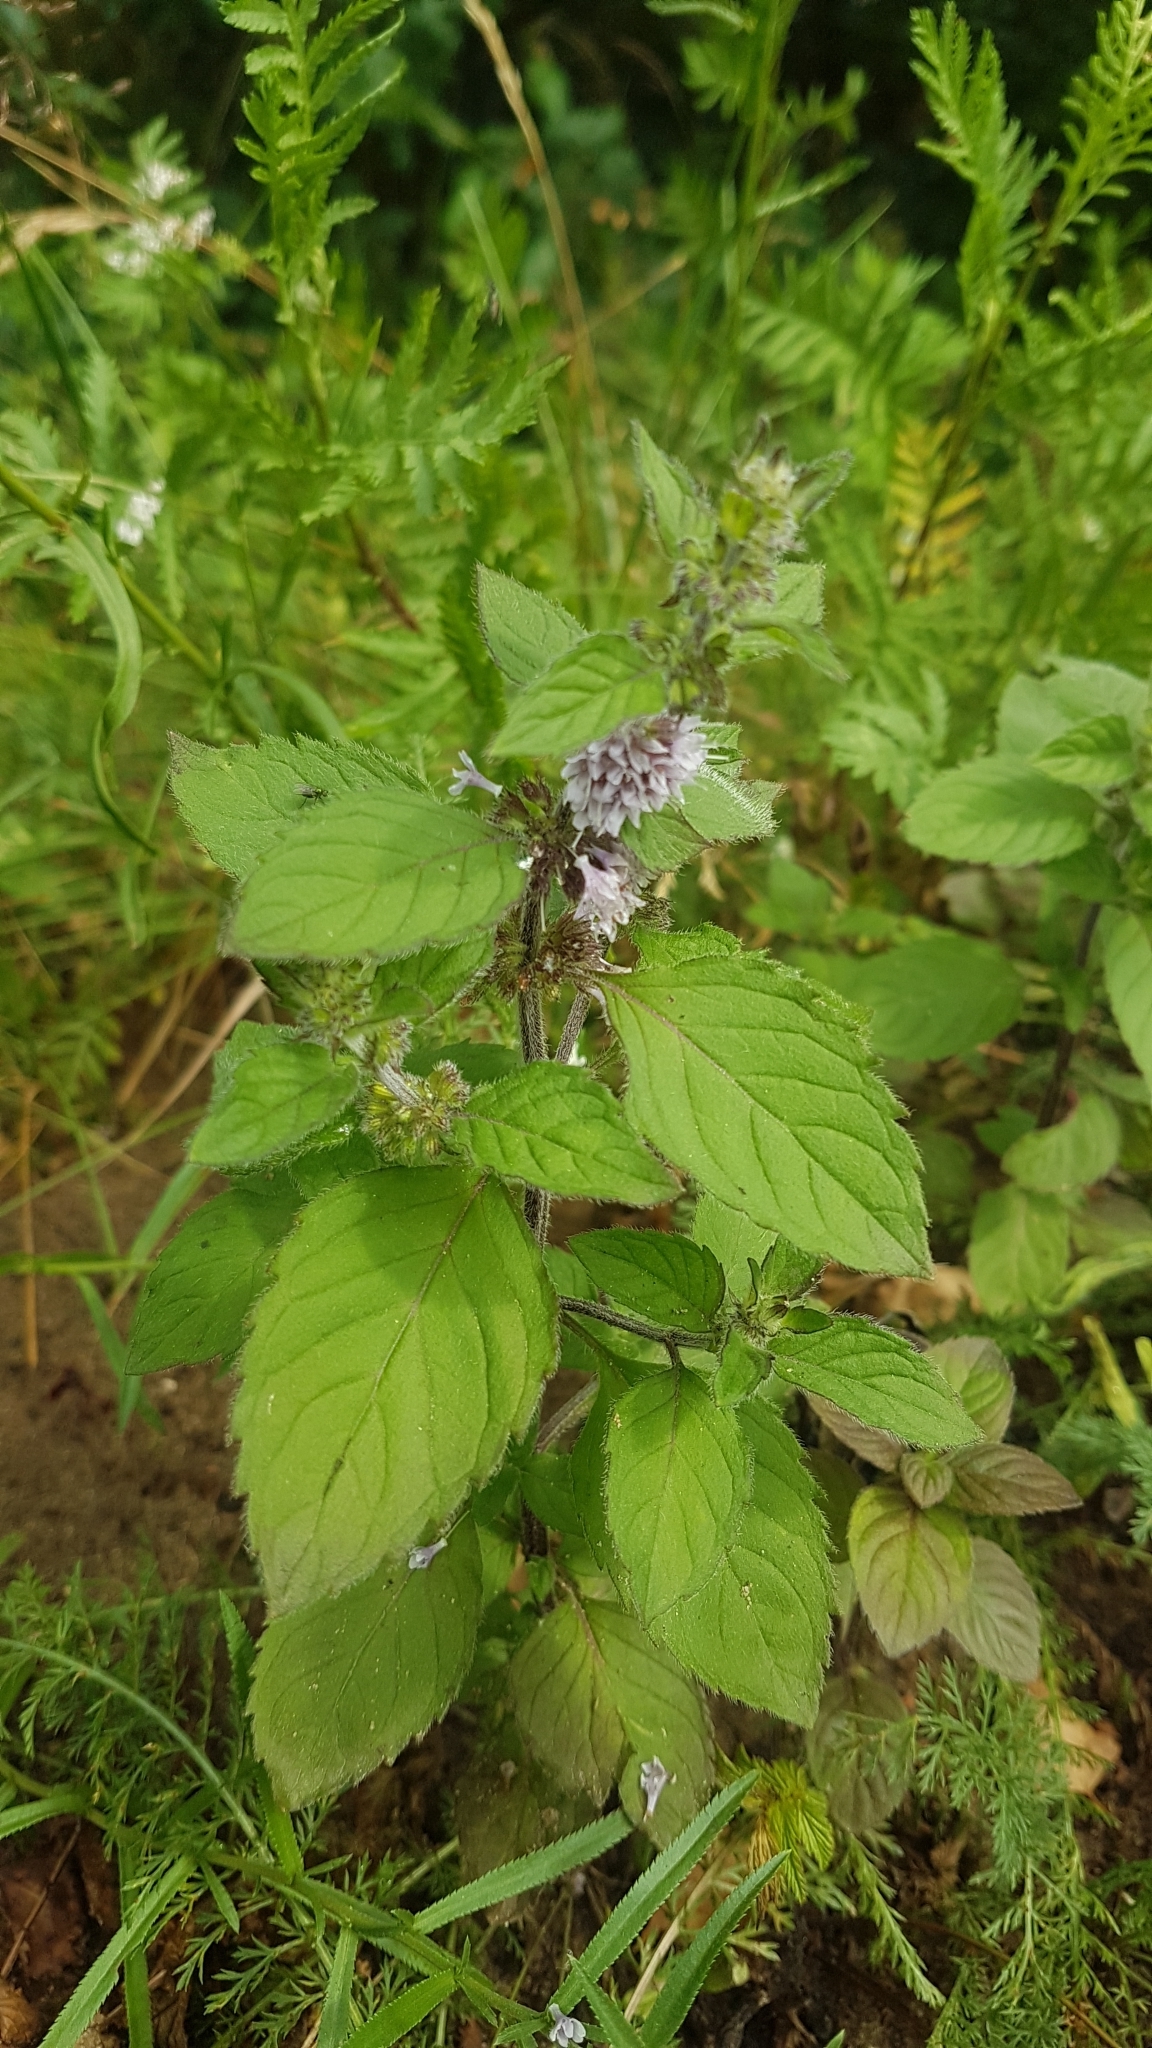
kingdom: Plantae
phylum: Tracheophyta
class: Magnoliopsida
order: Lamiales
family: Lamiaceae
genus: Mentha
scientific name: Mentha aquatica
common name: Water mint
